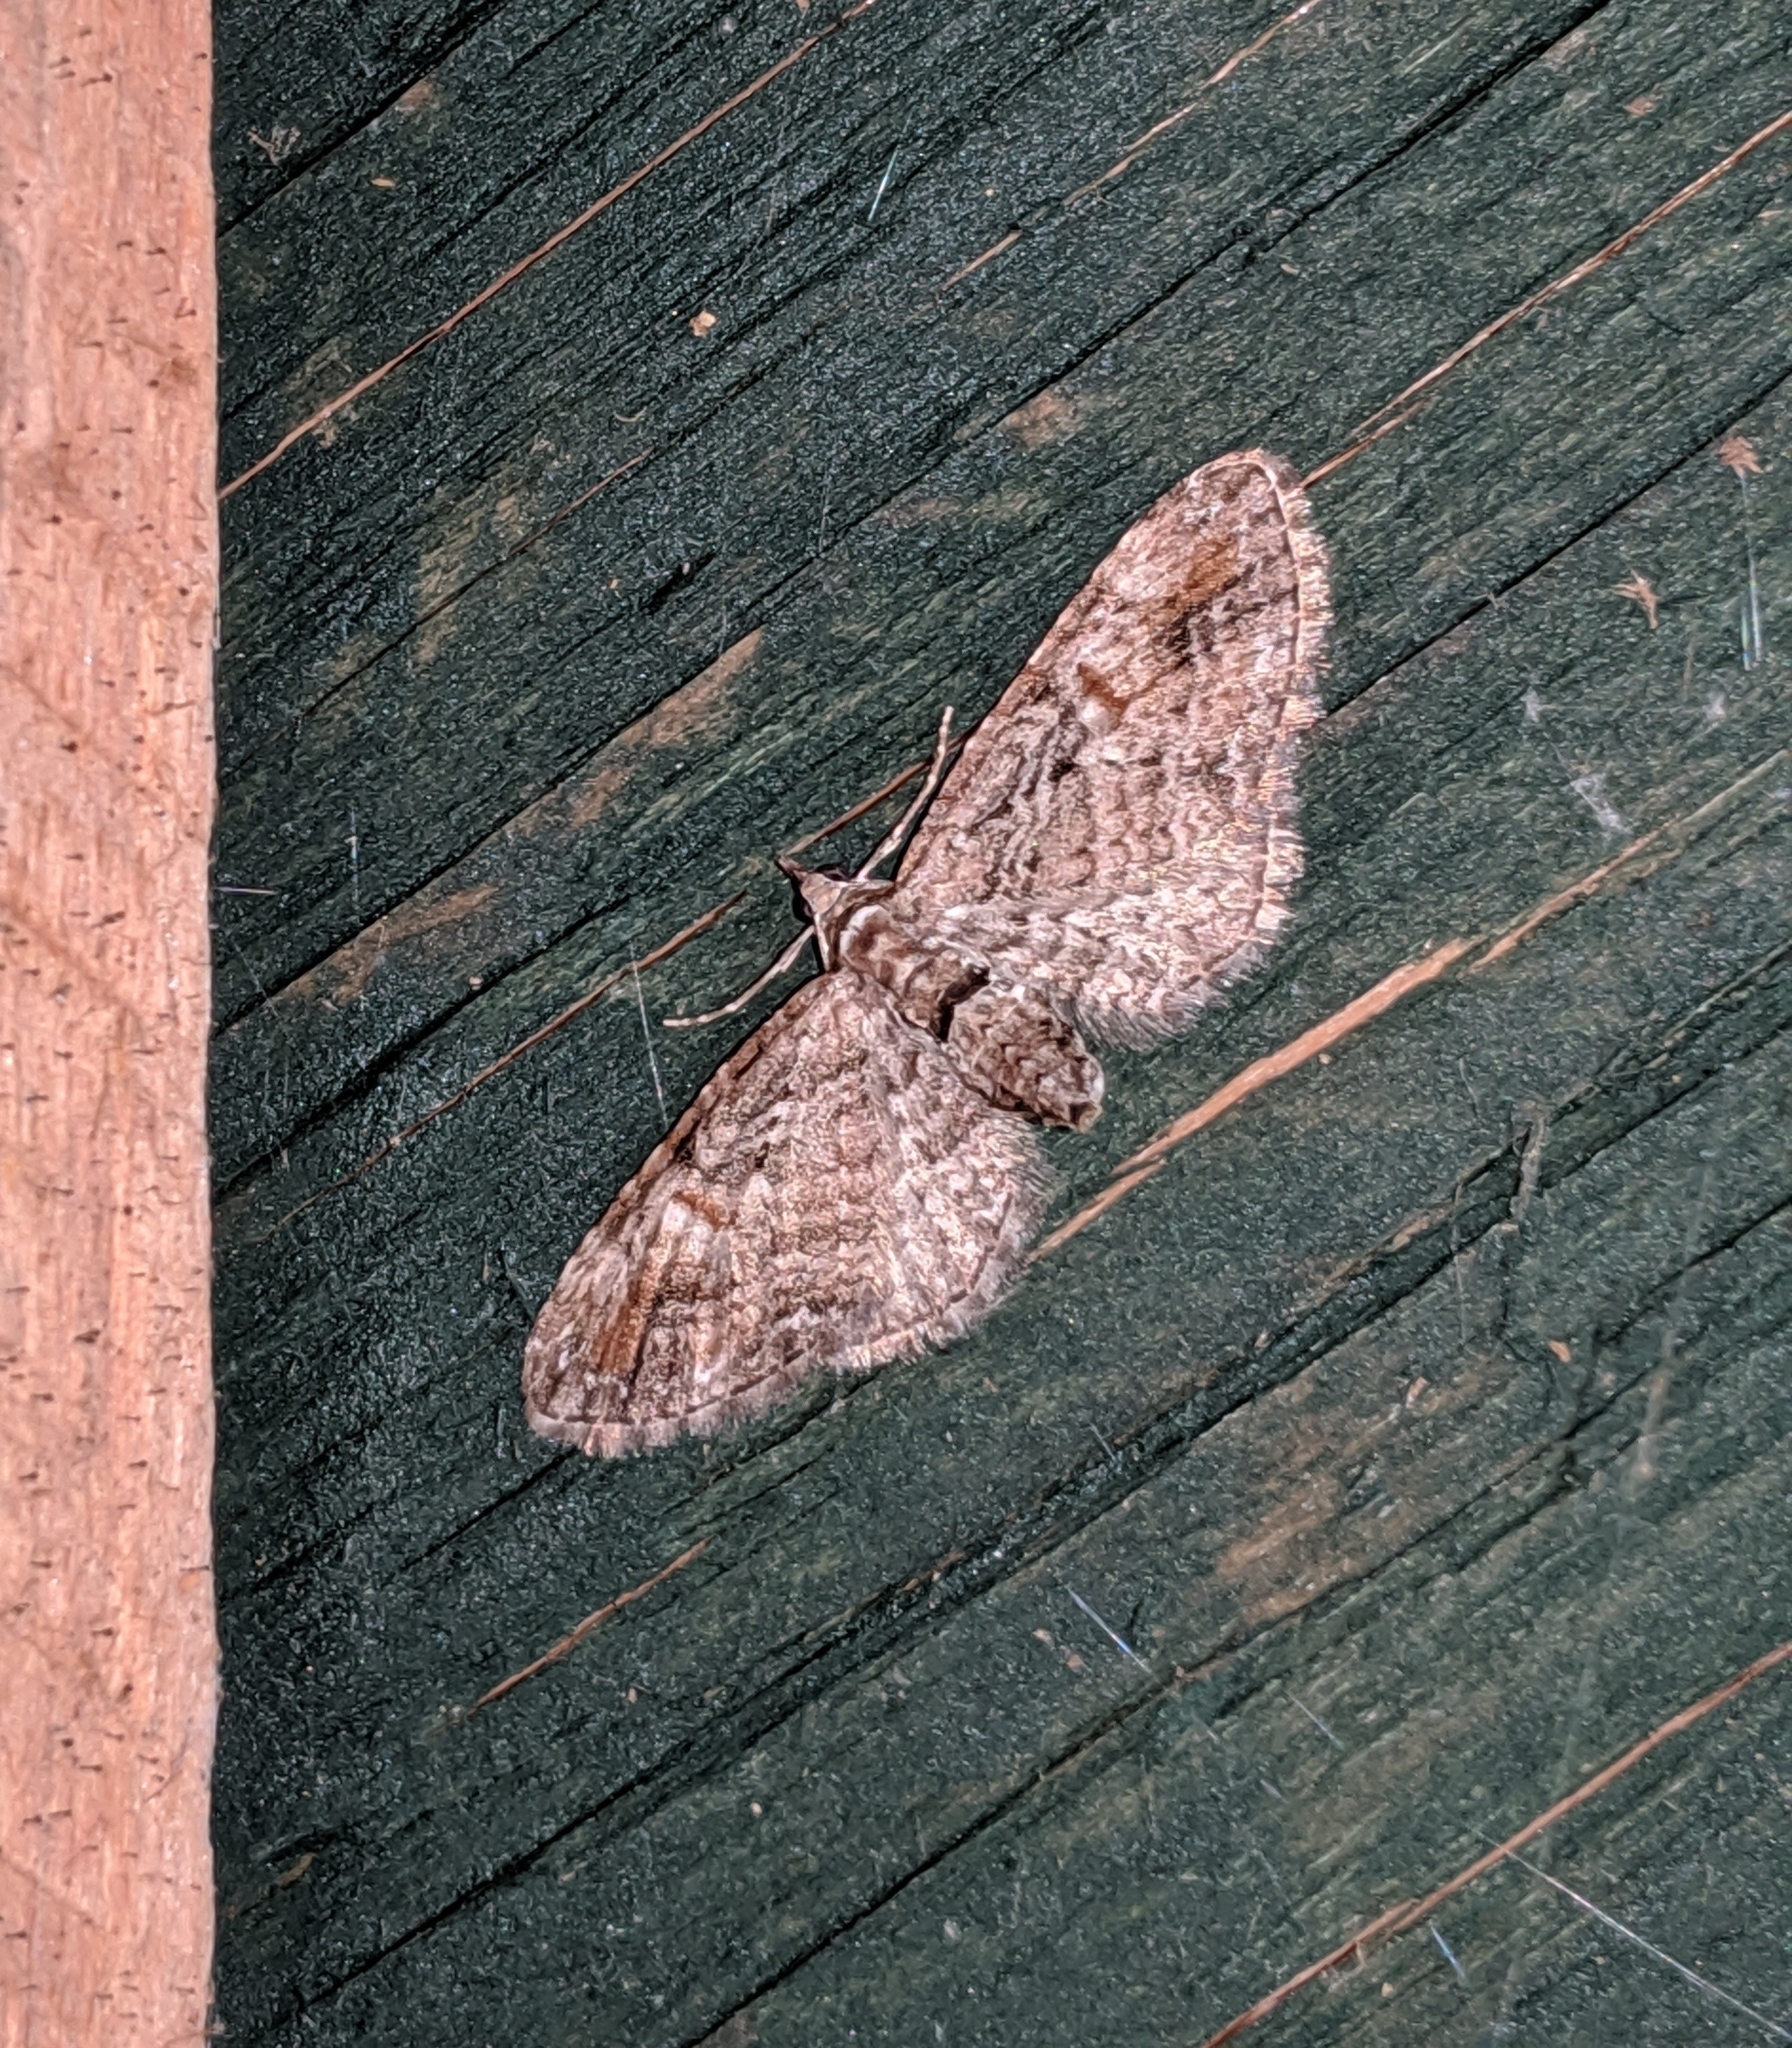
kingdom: Animalia
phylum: Arthropoda
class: Insecta
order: Lepidoptera
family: Geometridae
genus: Eupithecia
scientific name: Eupithecia graefii
